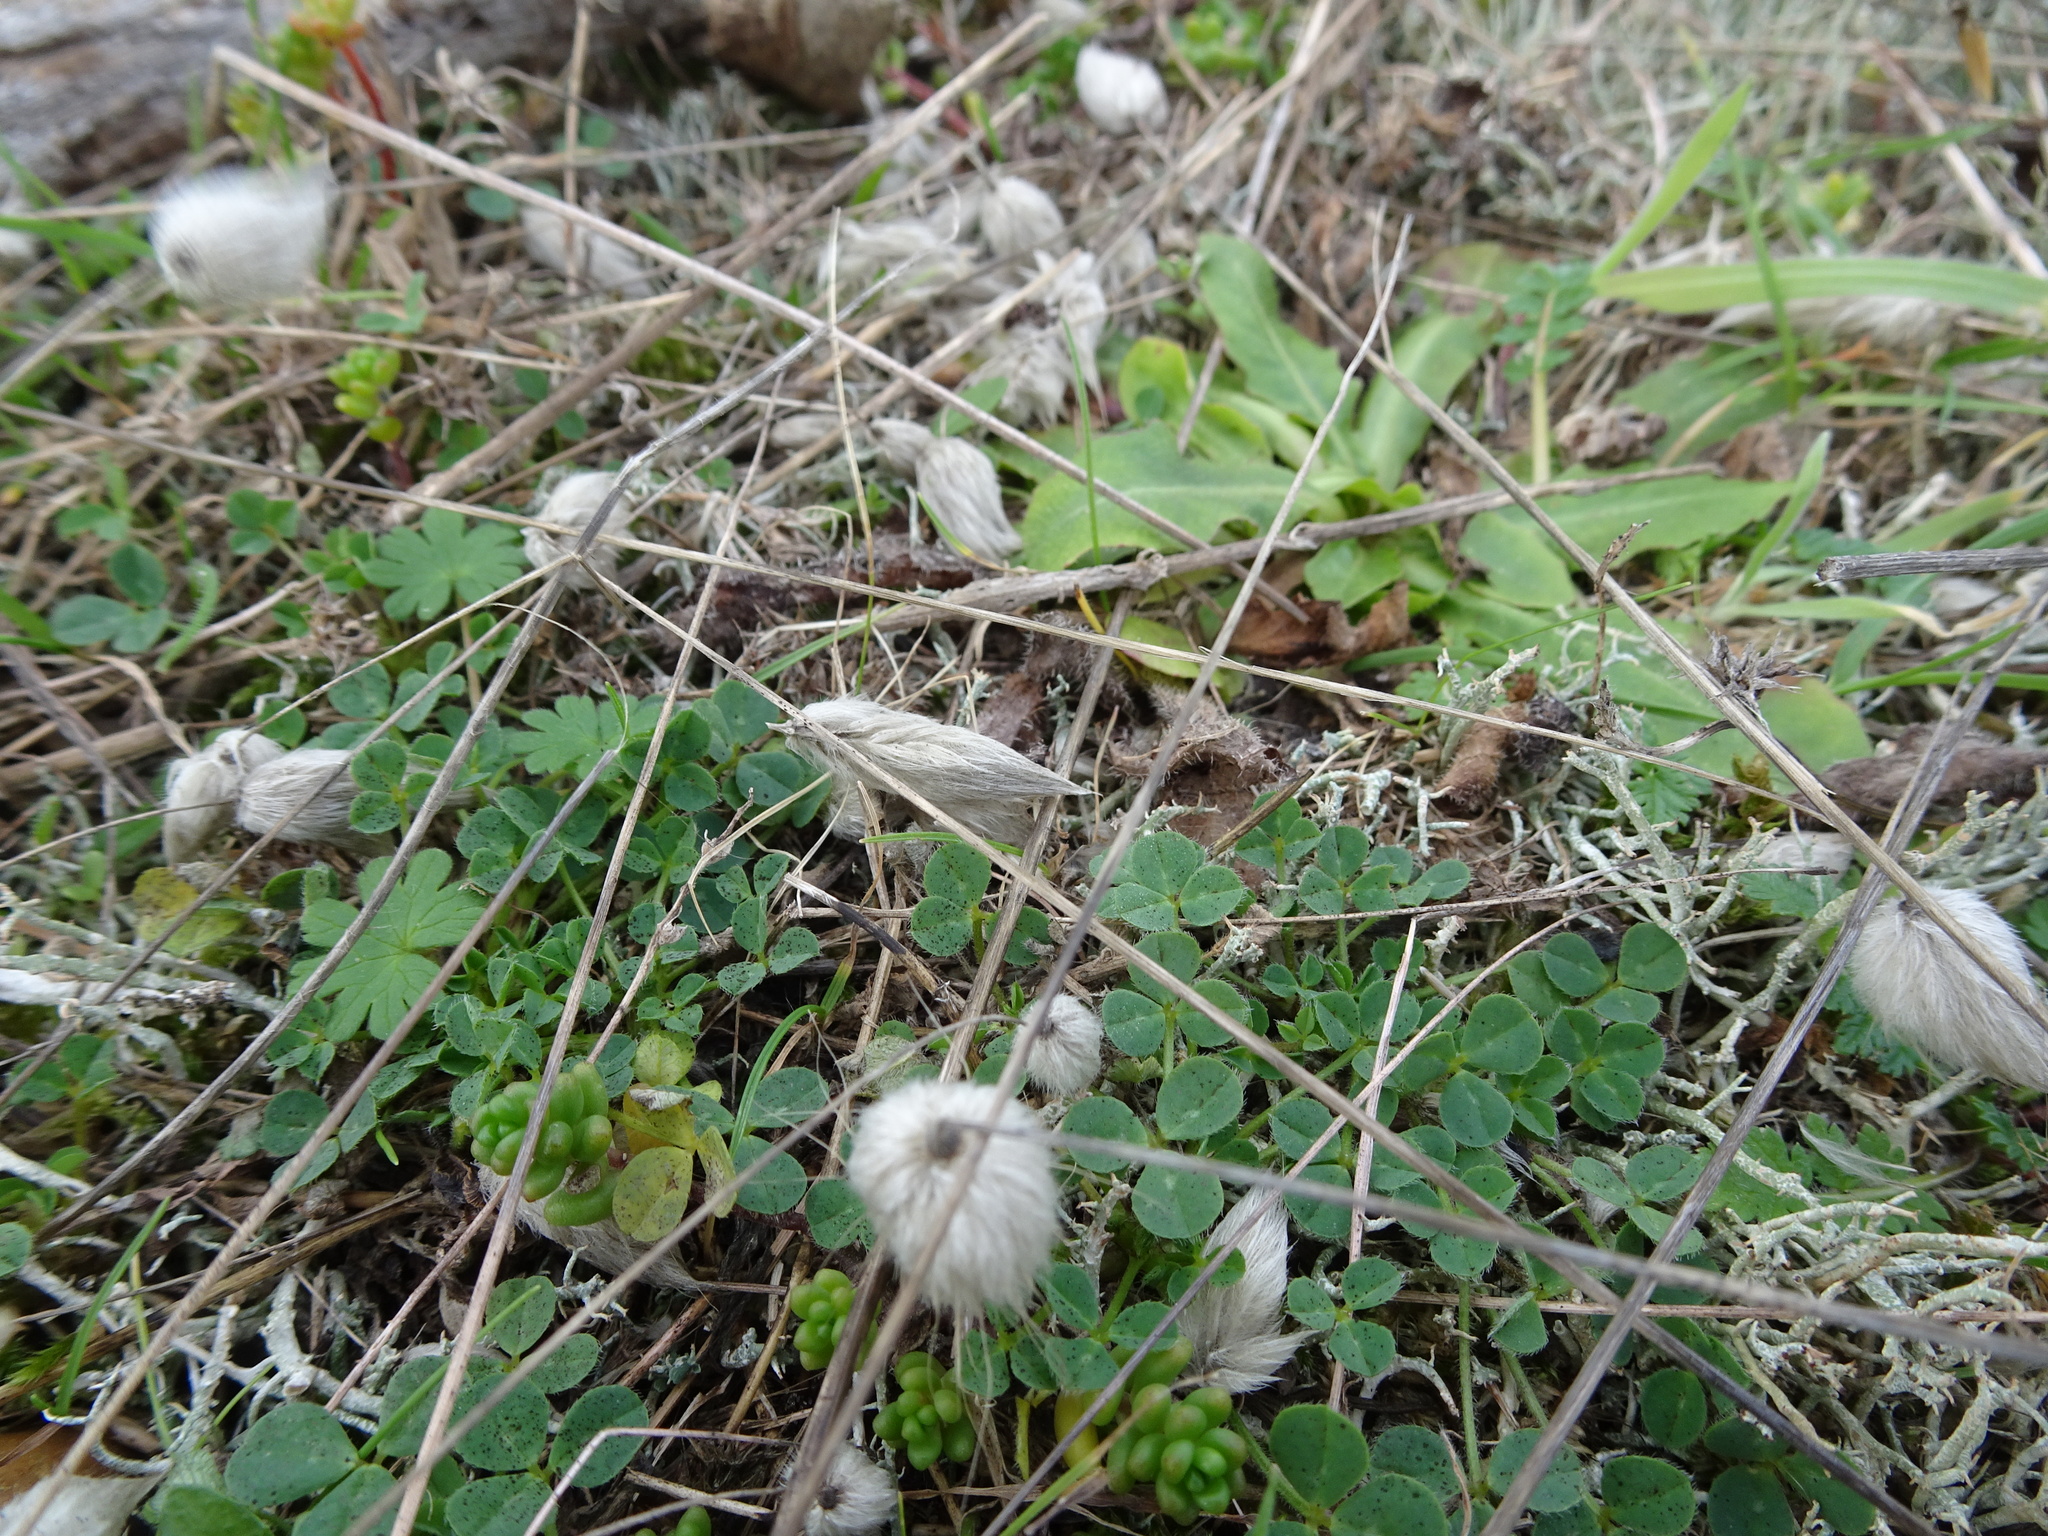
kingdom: Plantae
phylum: Tracheophyta
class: Liliopsida
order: Poales
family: Poaceae
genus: Lagurus
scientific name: Lagurus ovatus
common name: Hare's-tail
